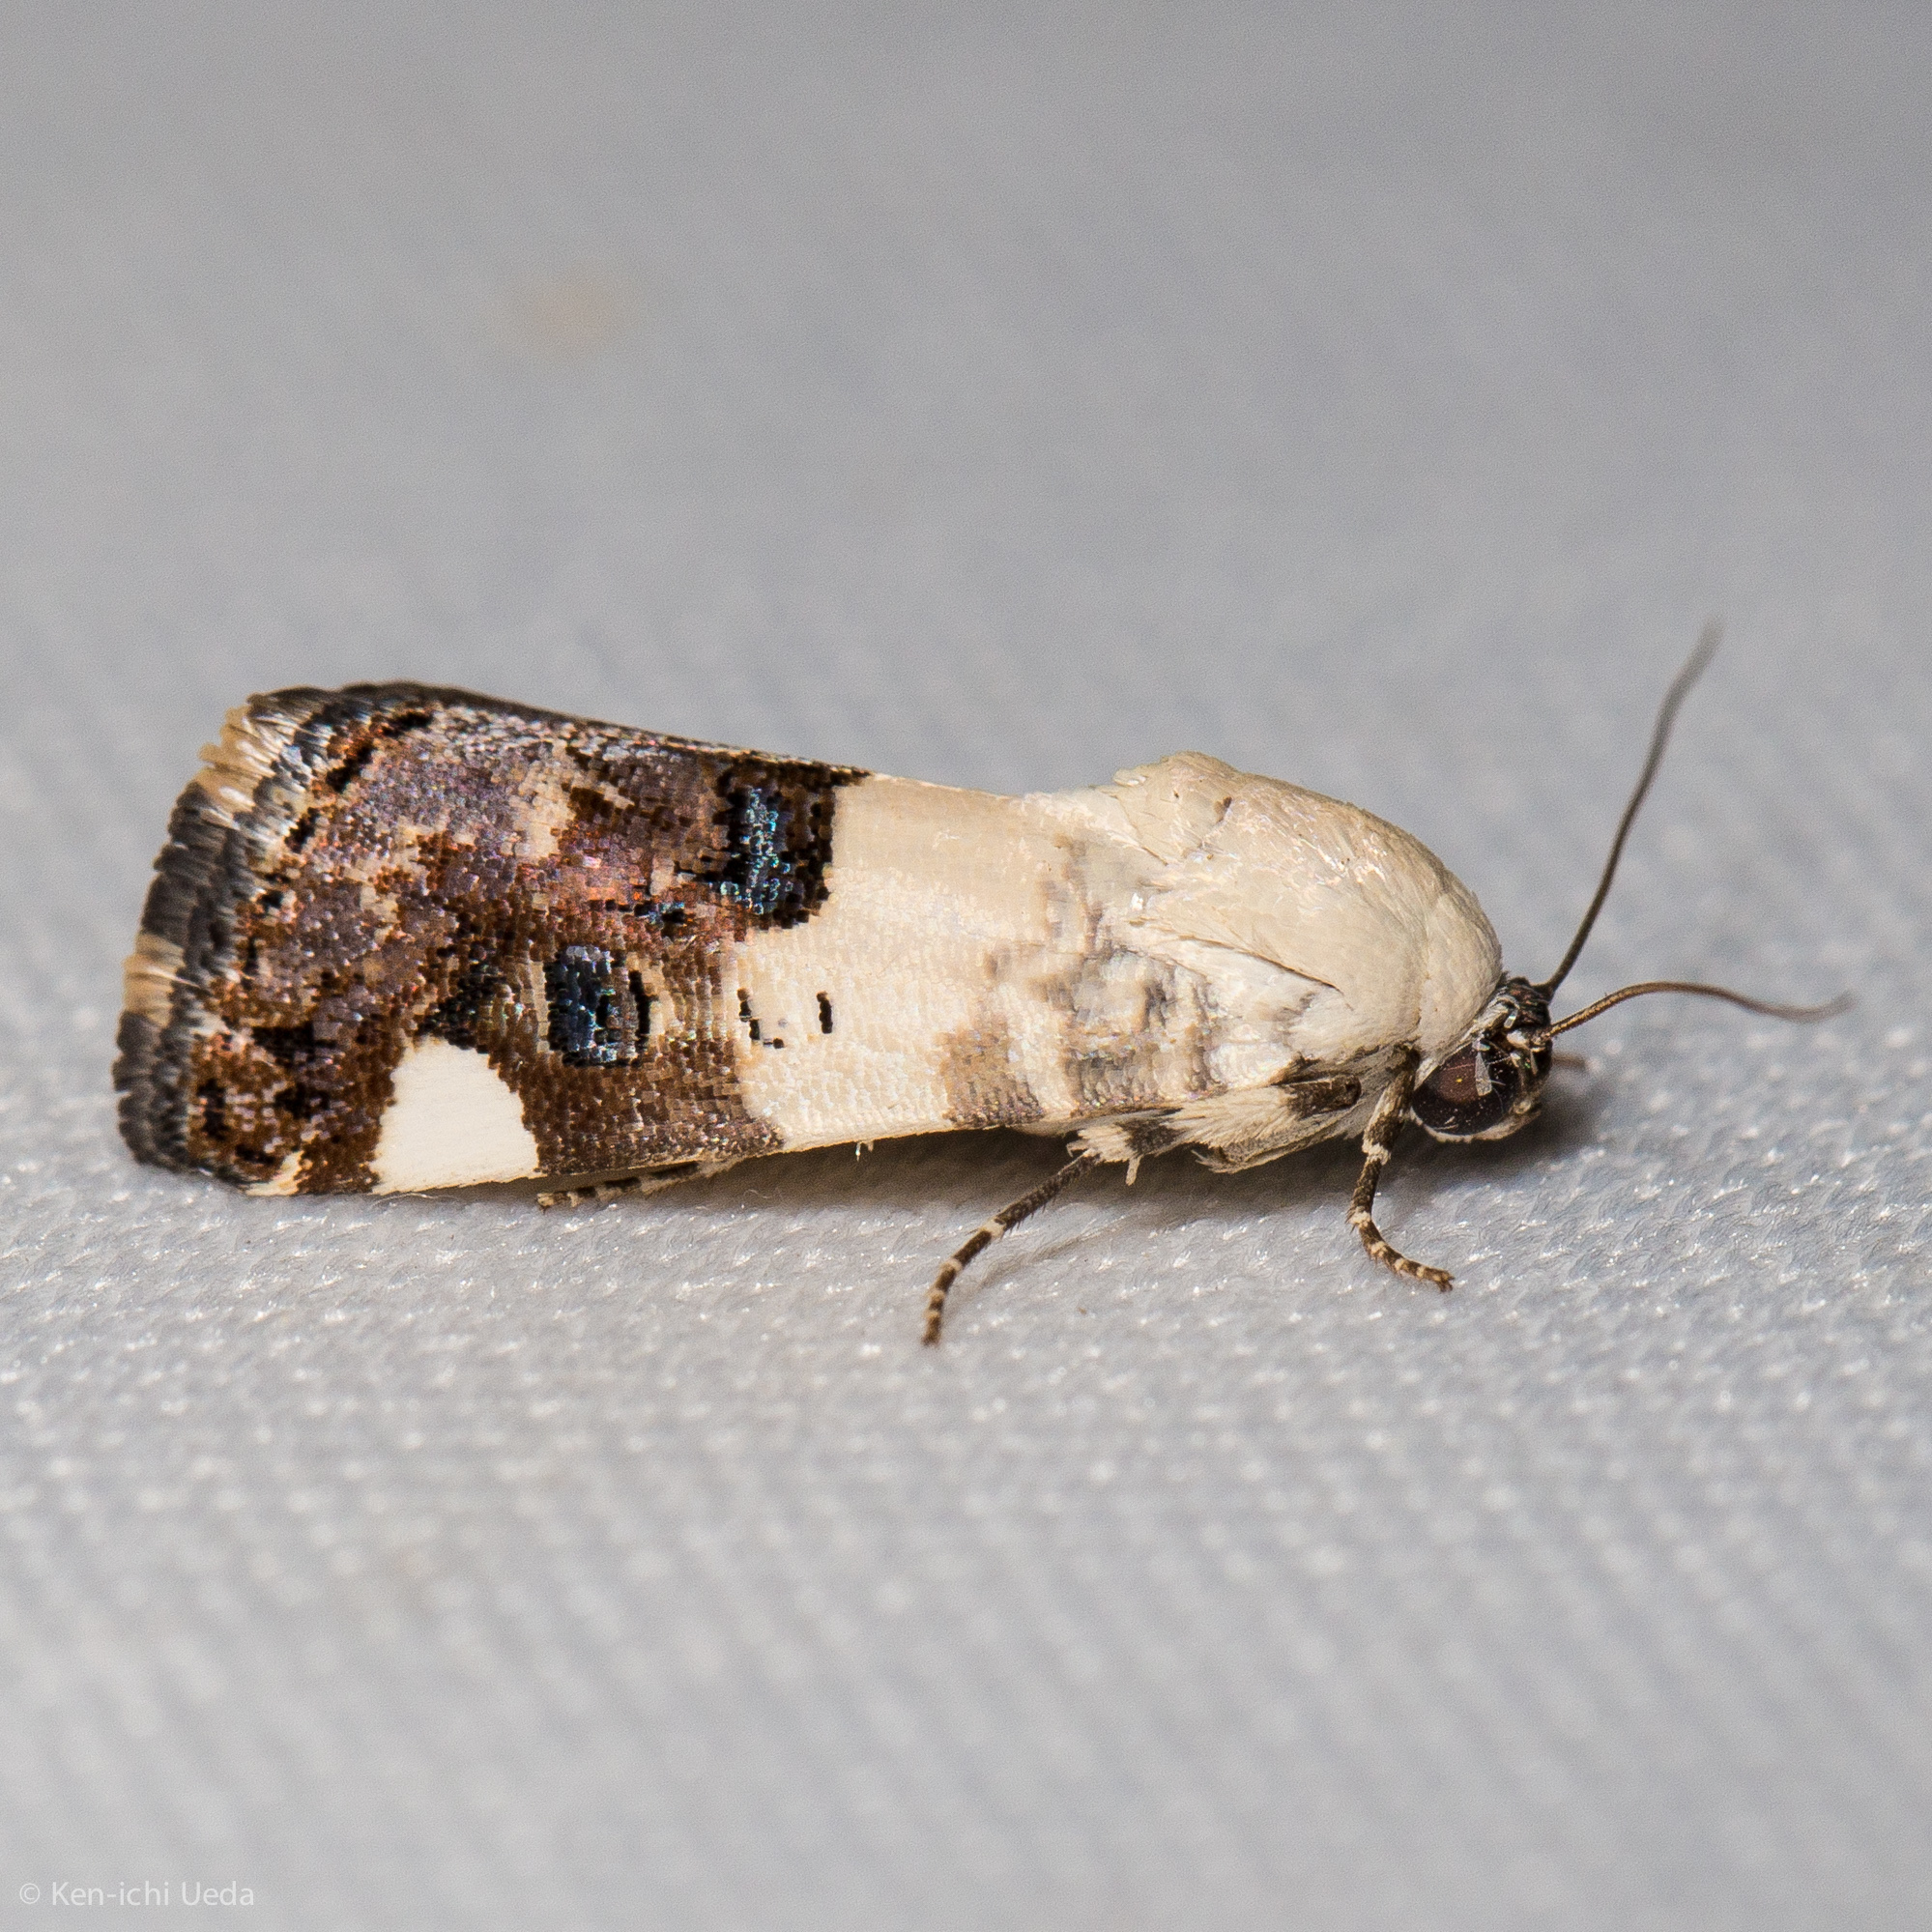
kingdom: Animalia
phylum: Arthropoda
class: Insecta
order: Lepidoptera
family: Noctuidae
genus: Acontia
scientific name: Acontia areli
